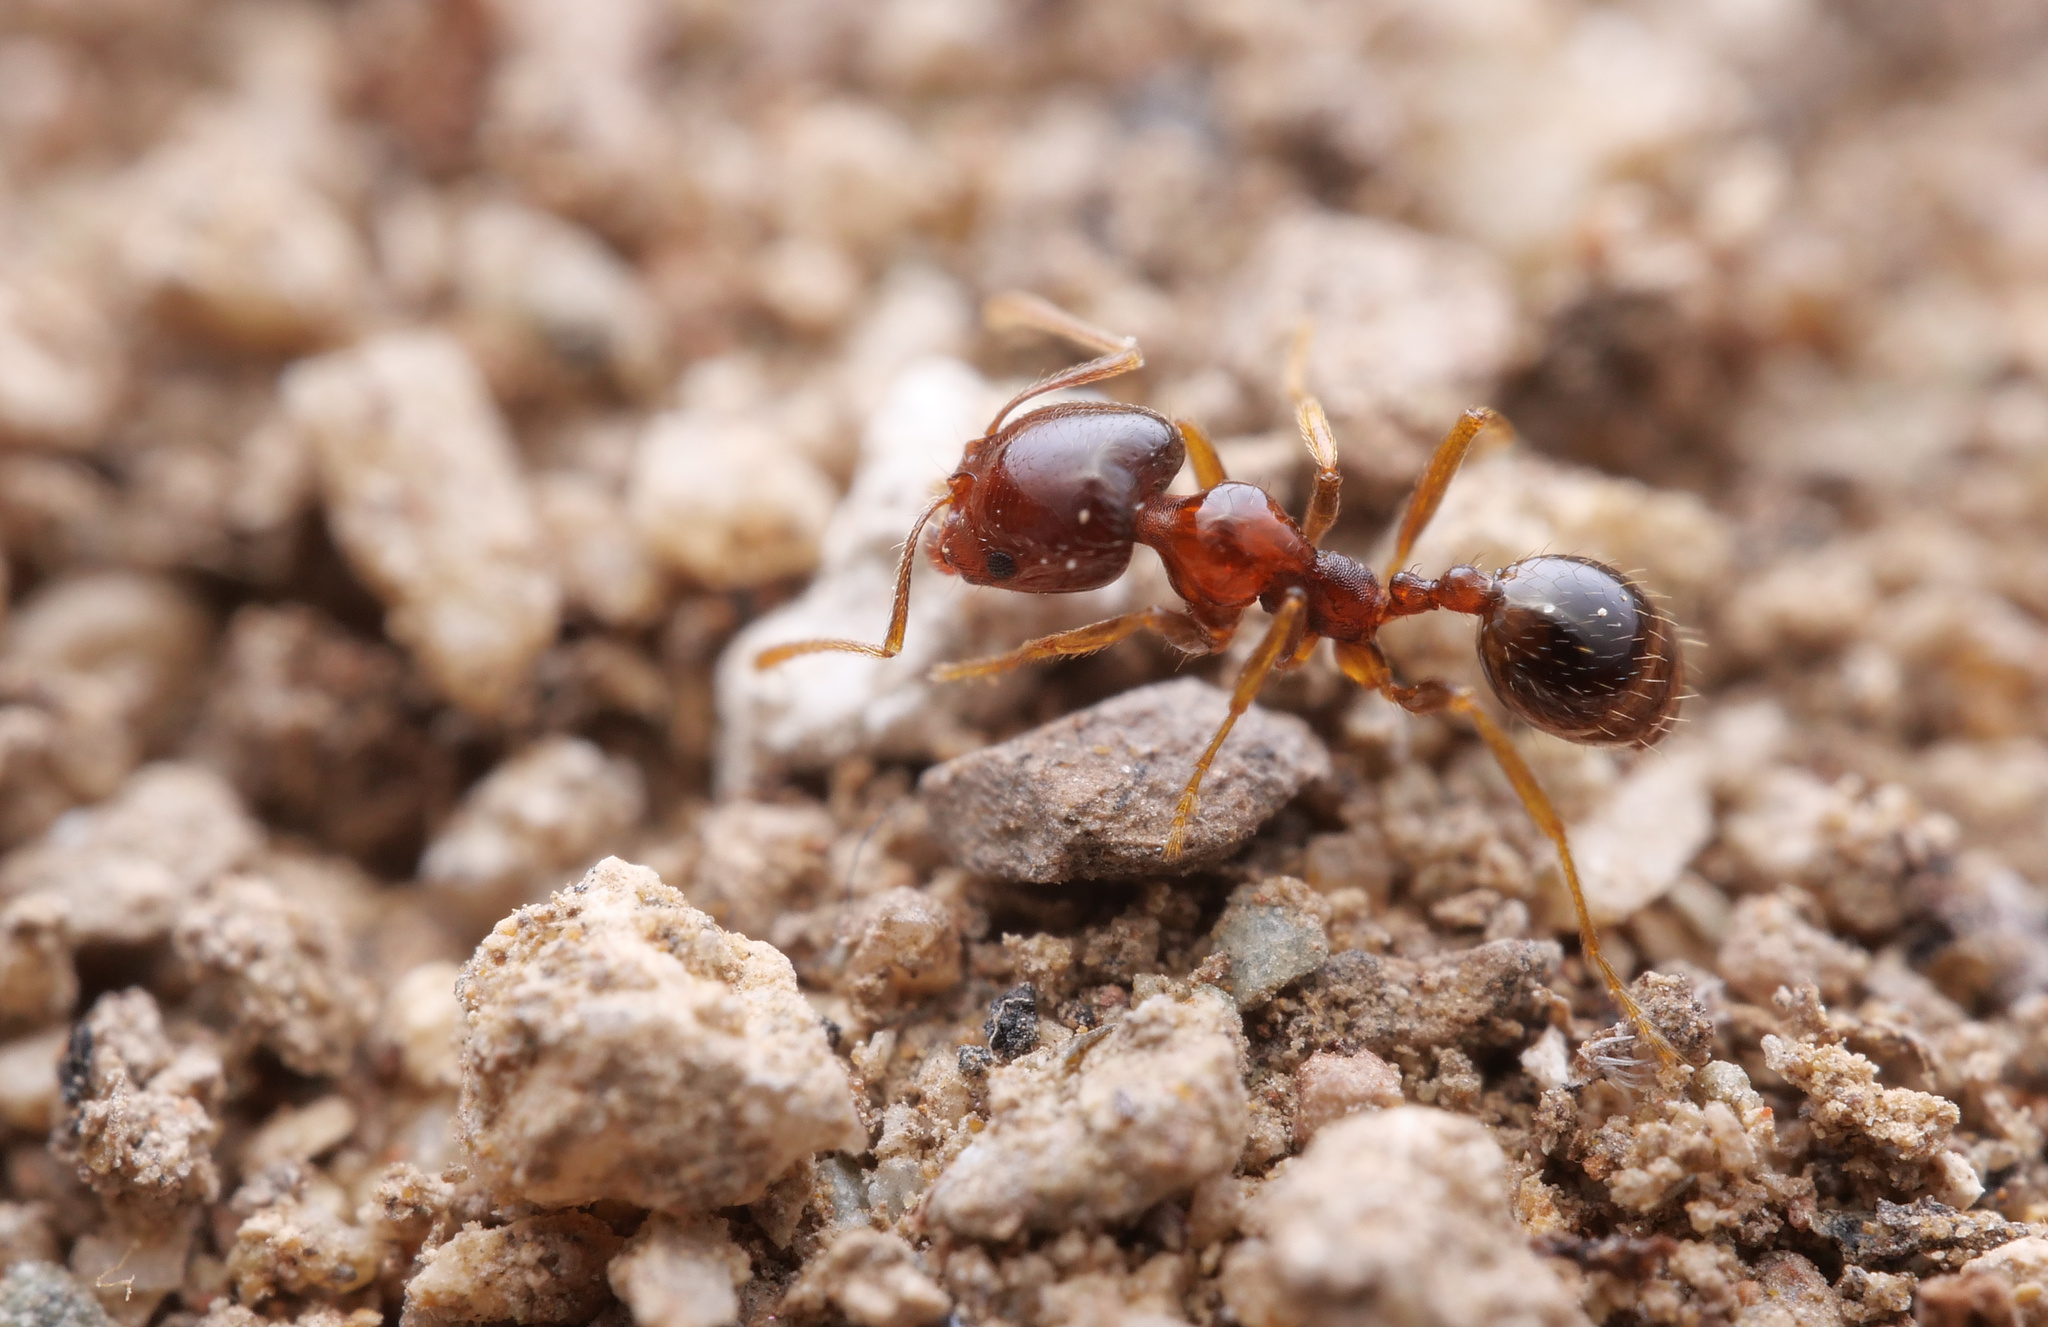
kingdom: Animalia
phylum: Arthropoda
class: Insecta
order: Hymenoptera
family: Formicidae
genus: Monomorium
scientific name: Monomorium perplexum
